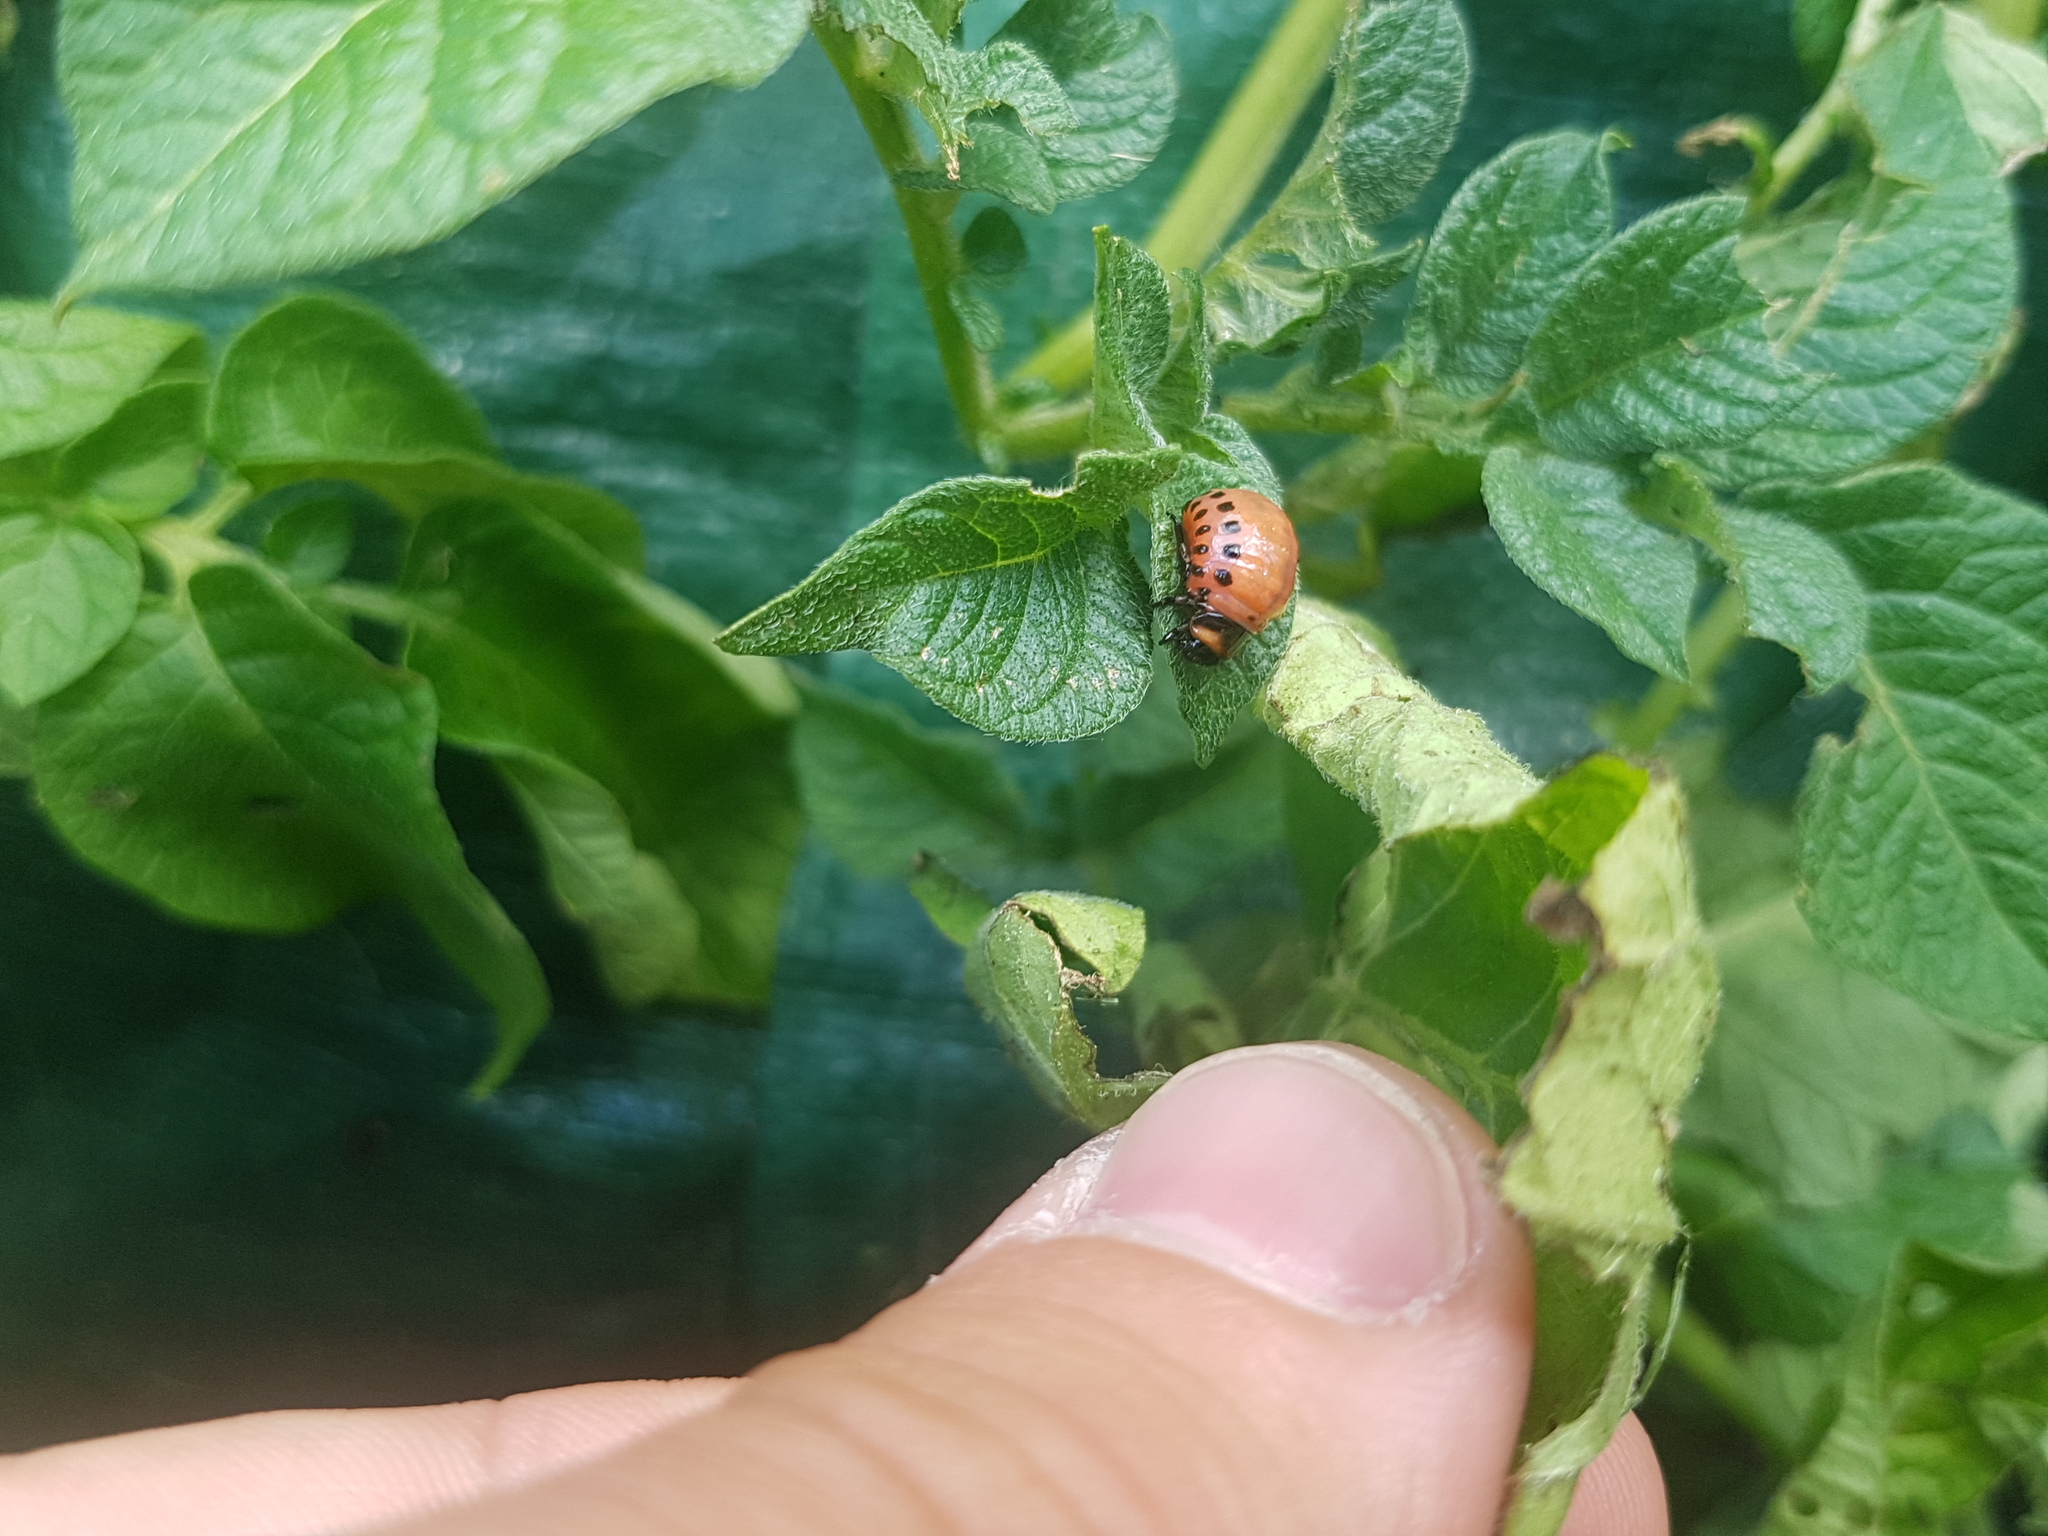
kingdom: Animalia
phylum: Arthropoda
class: Insecta
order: Coleoptera
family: Chrysomelidae
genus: Leptinotarsa
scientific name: Leptinotarsa decemlineata
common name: Colorado potato beetle
